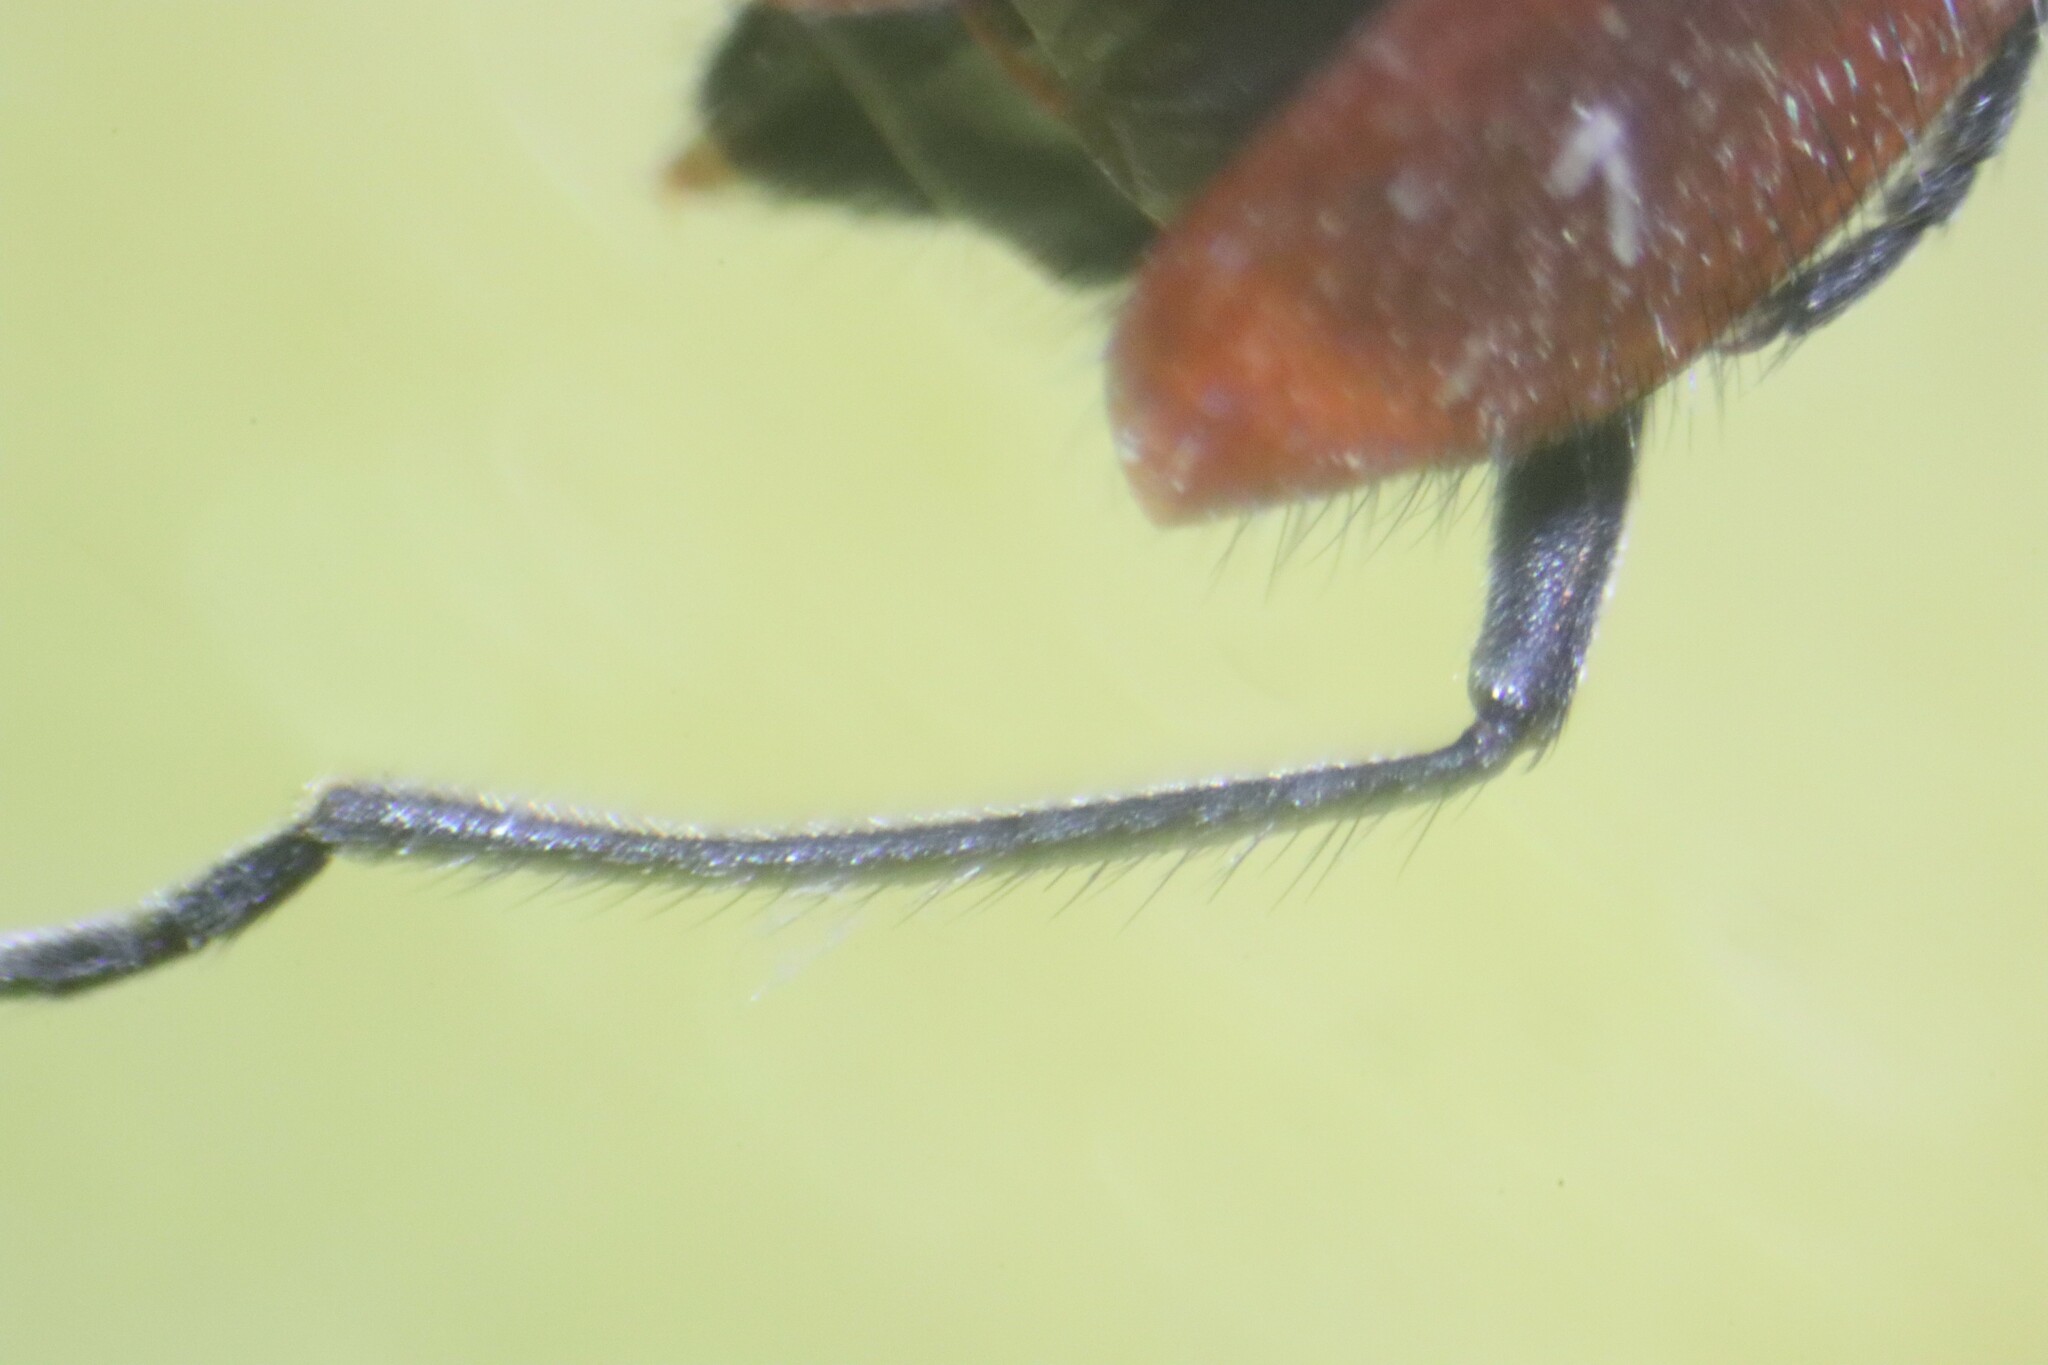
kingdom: Animalia
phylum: Arthropoda
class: Insecta
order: Coleoptera
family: Melyridae
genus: Malachius
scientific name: Malachius coccineus
